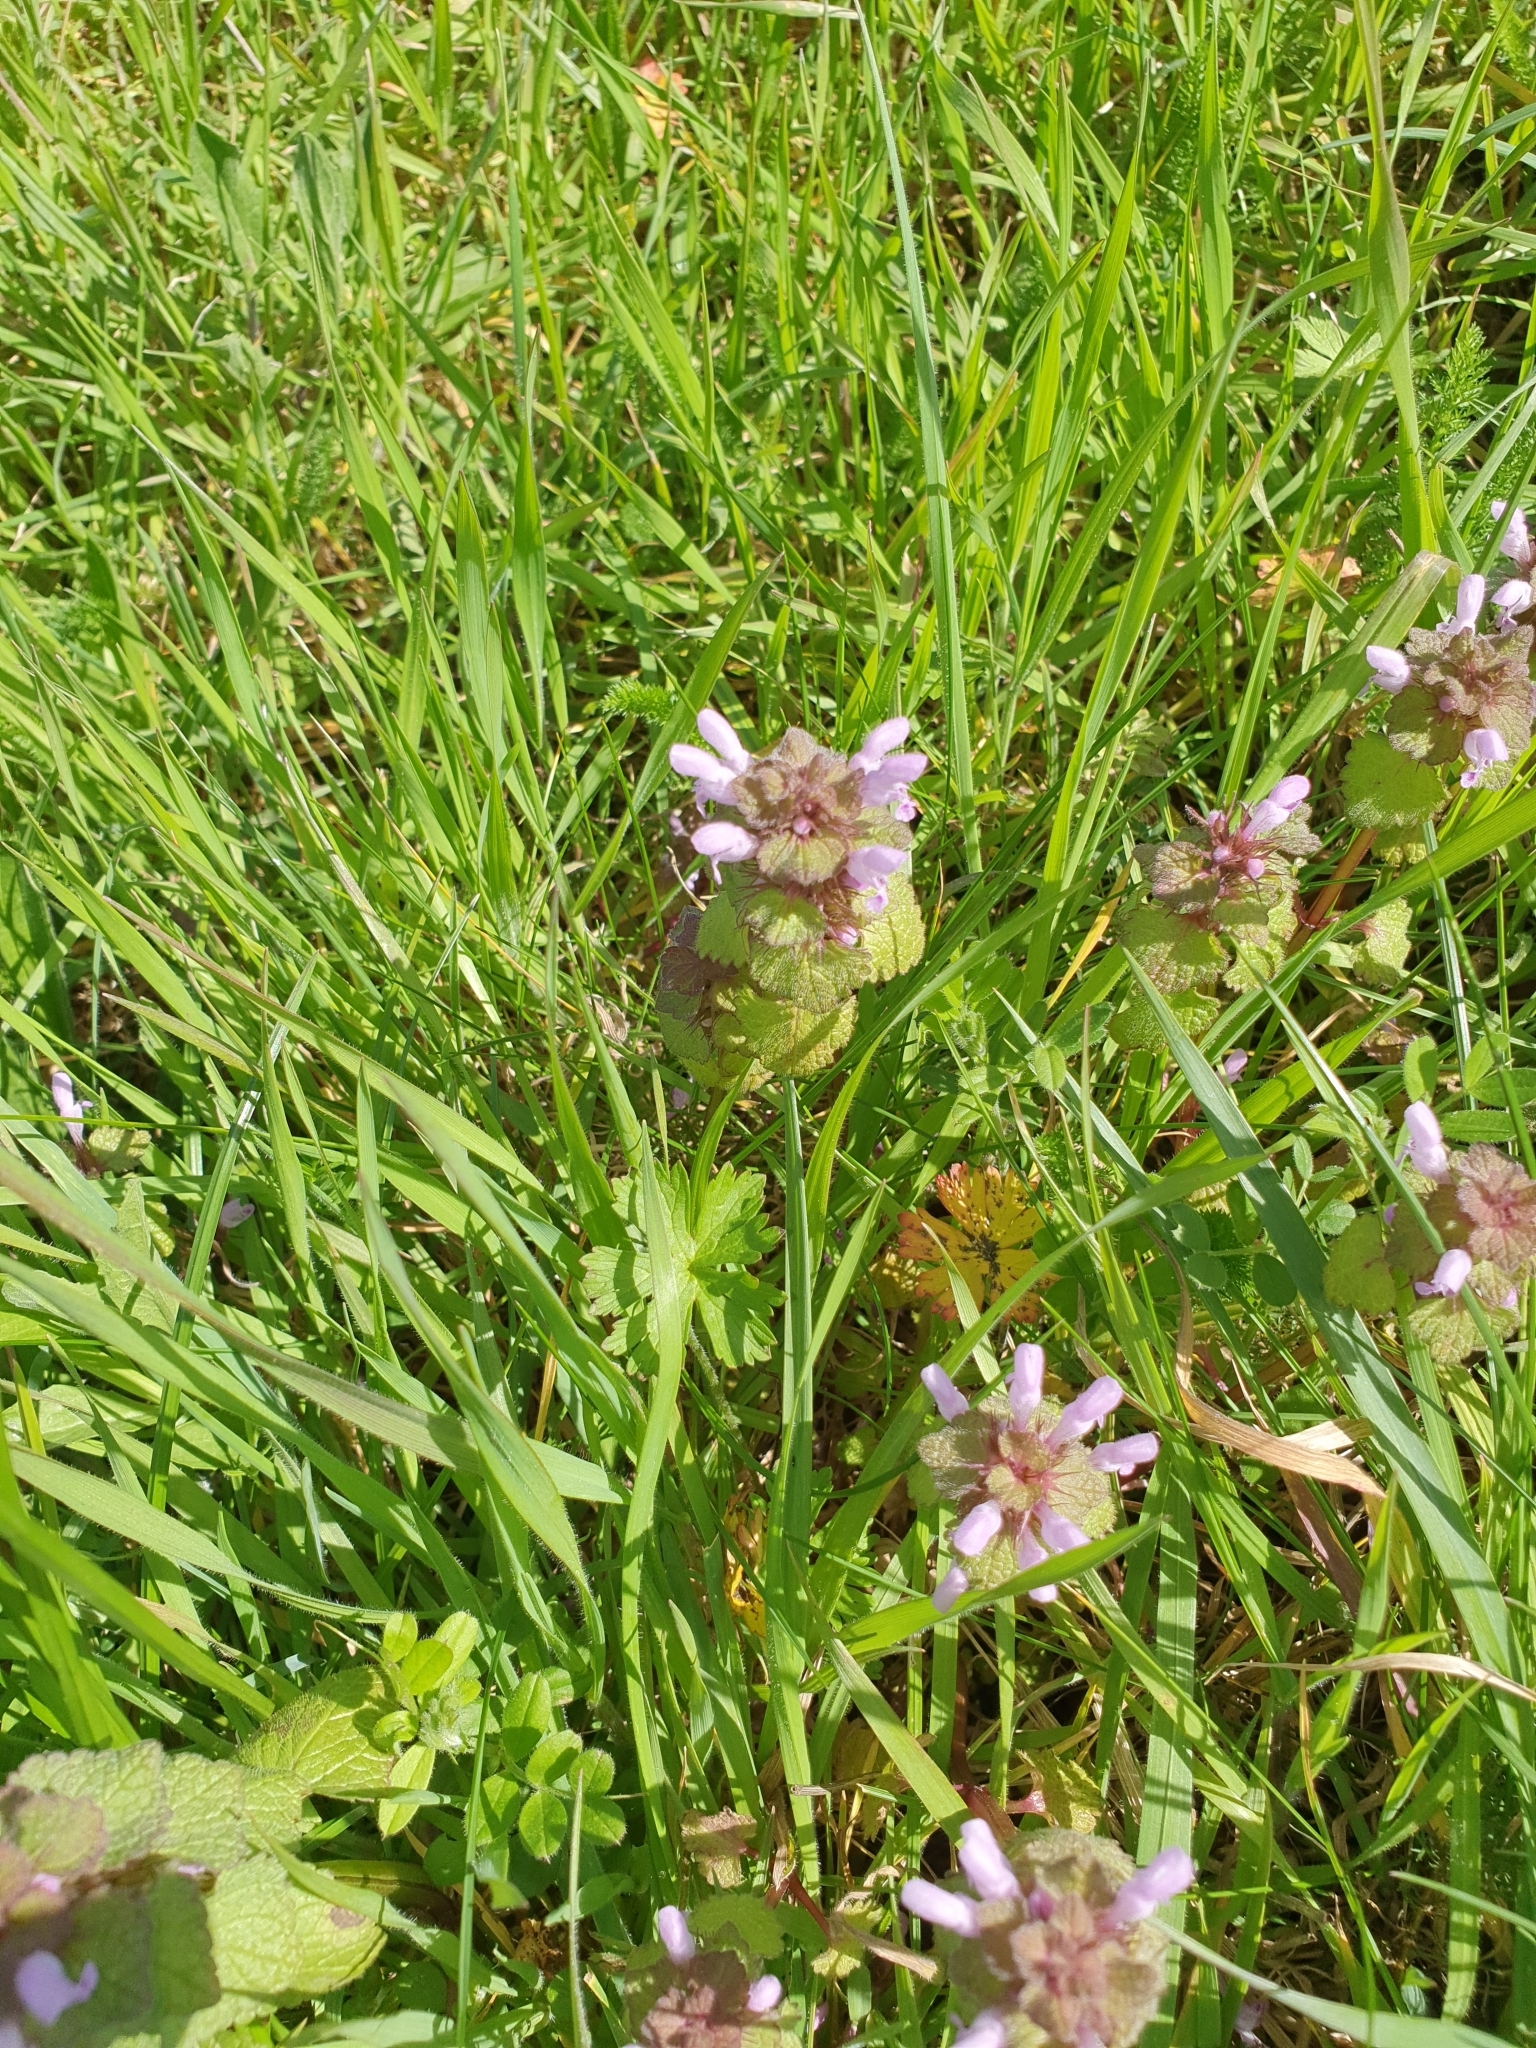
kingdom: Plantae
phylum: Tracheophyta
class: Magnoliopsida
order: Lamiales
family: Lamiaceae
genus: Lamium
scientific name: Lamium purpureum
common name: Red dead-nettle
